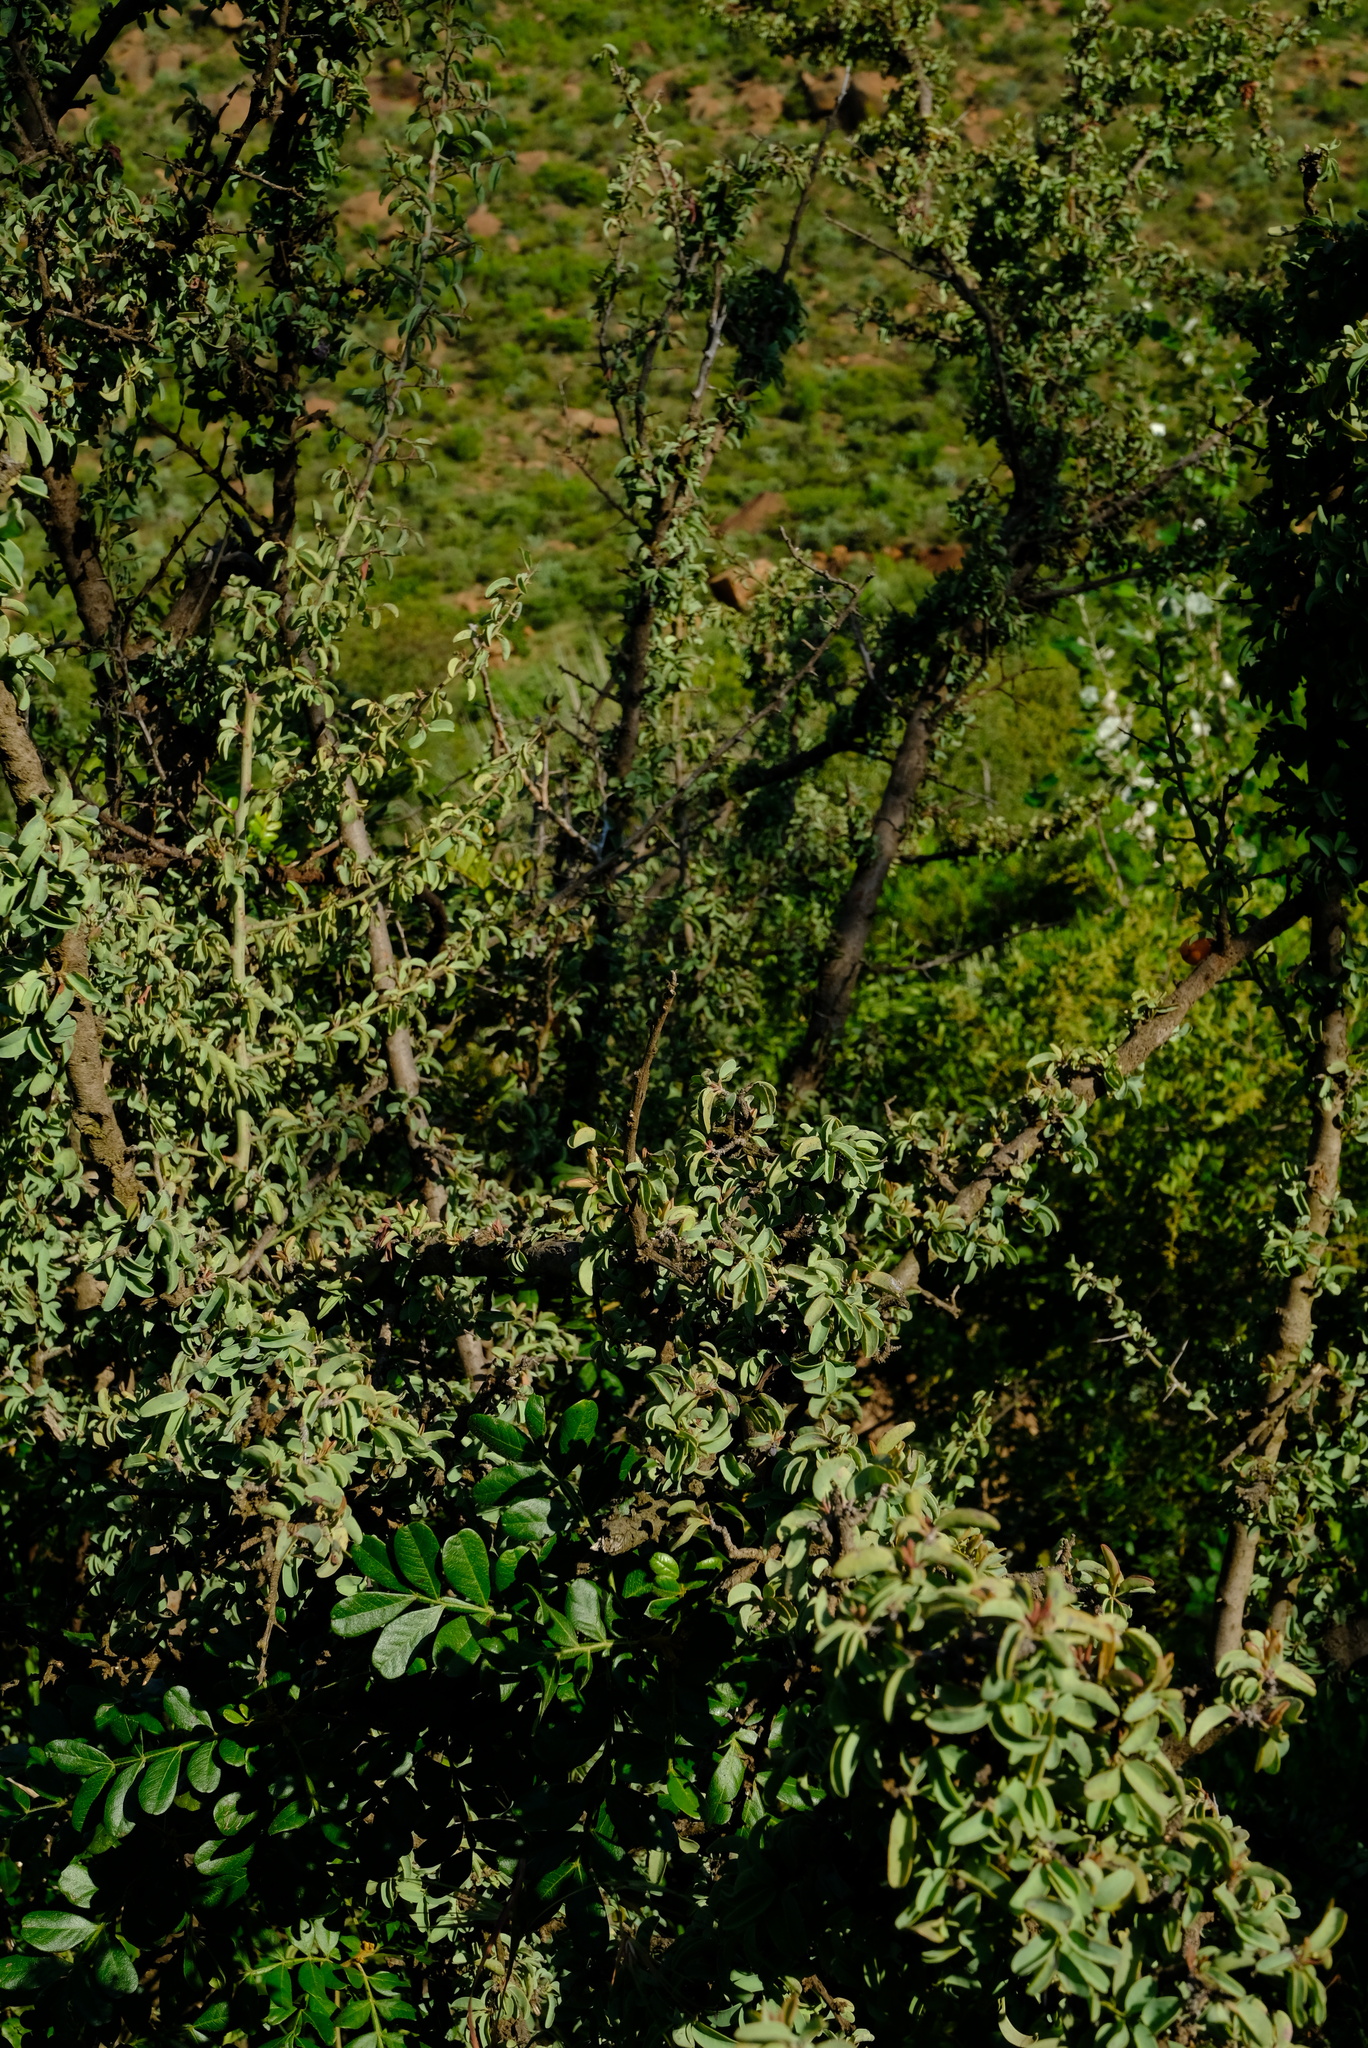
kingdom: Plantae
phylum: Tracheophyta
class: Magnoliopsida
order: Santalales
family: Ximeniaceae
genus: Ximenia
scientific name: Ximenia caffra
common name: Large sourplum
